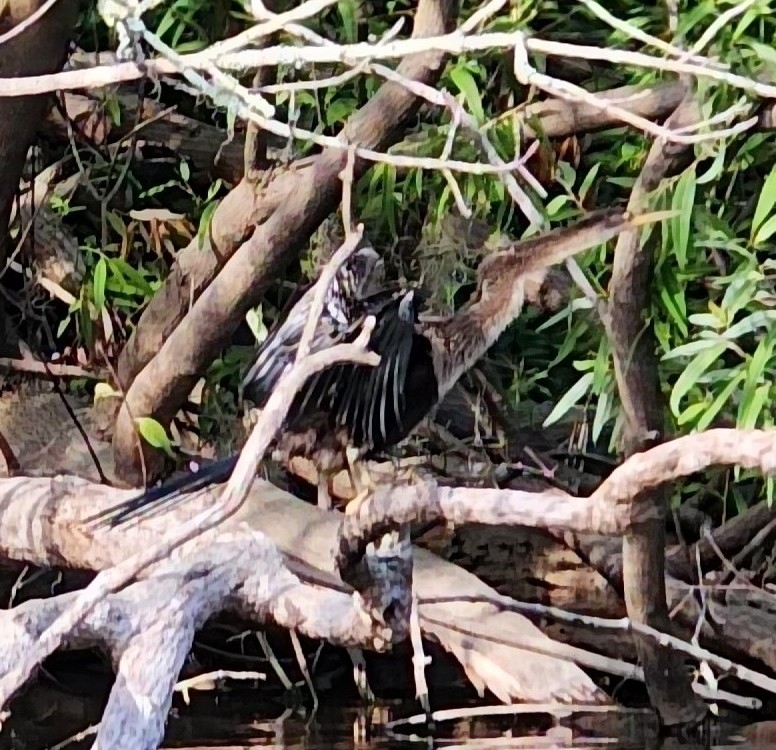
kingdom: Animalia
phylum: Chordata
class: Aves
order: Suliformes
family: Anhingidae
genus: Anhinga
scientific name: Anhinga anhinga
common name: Anhinga
